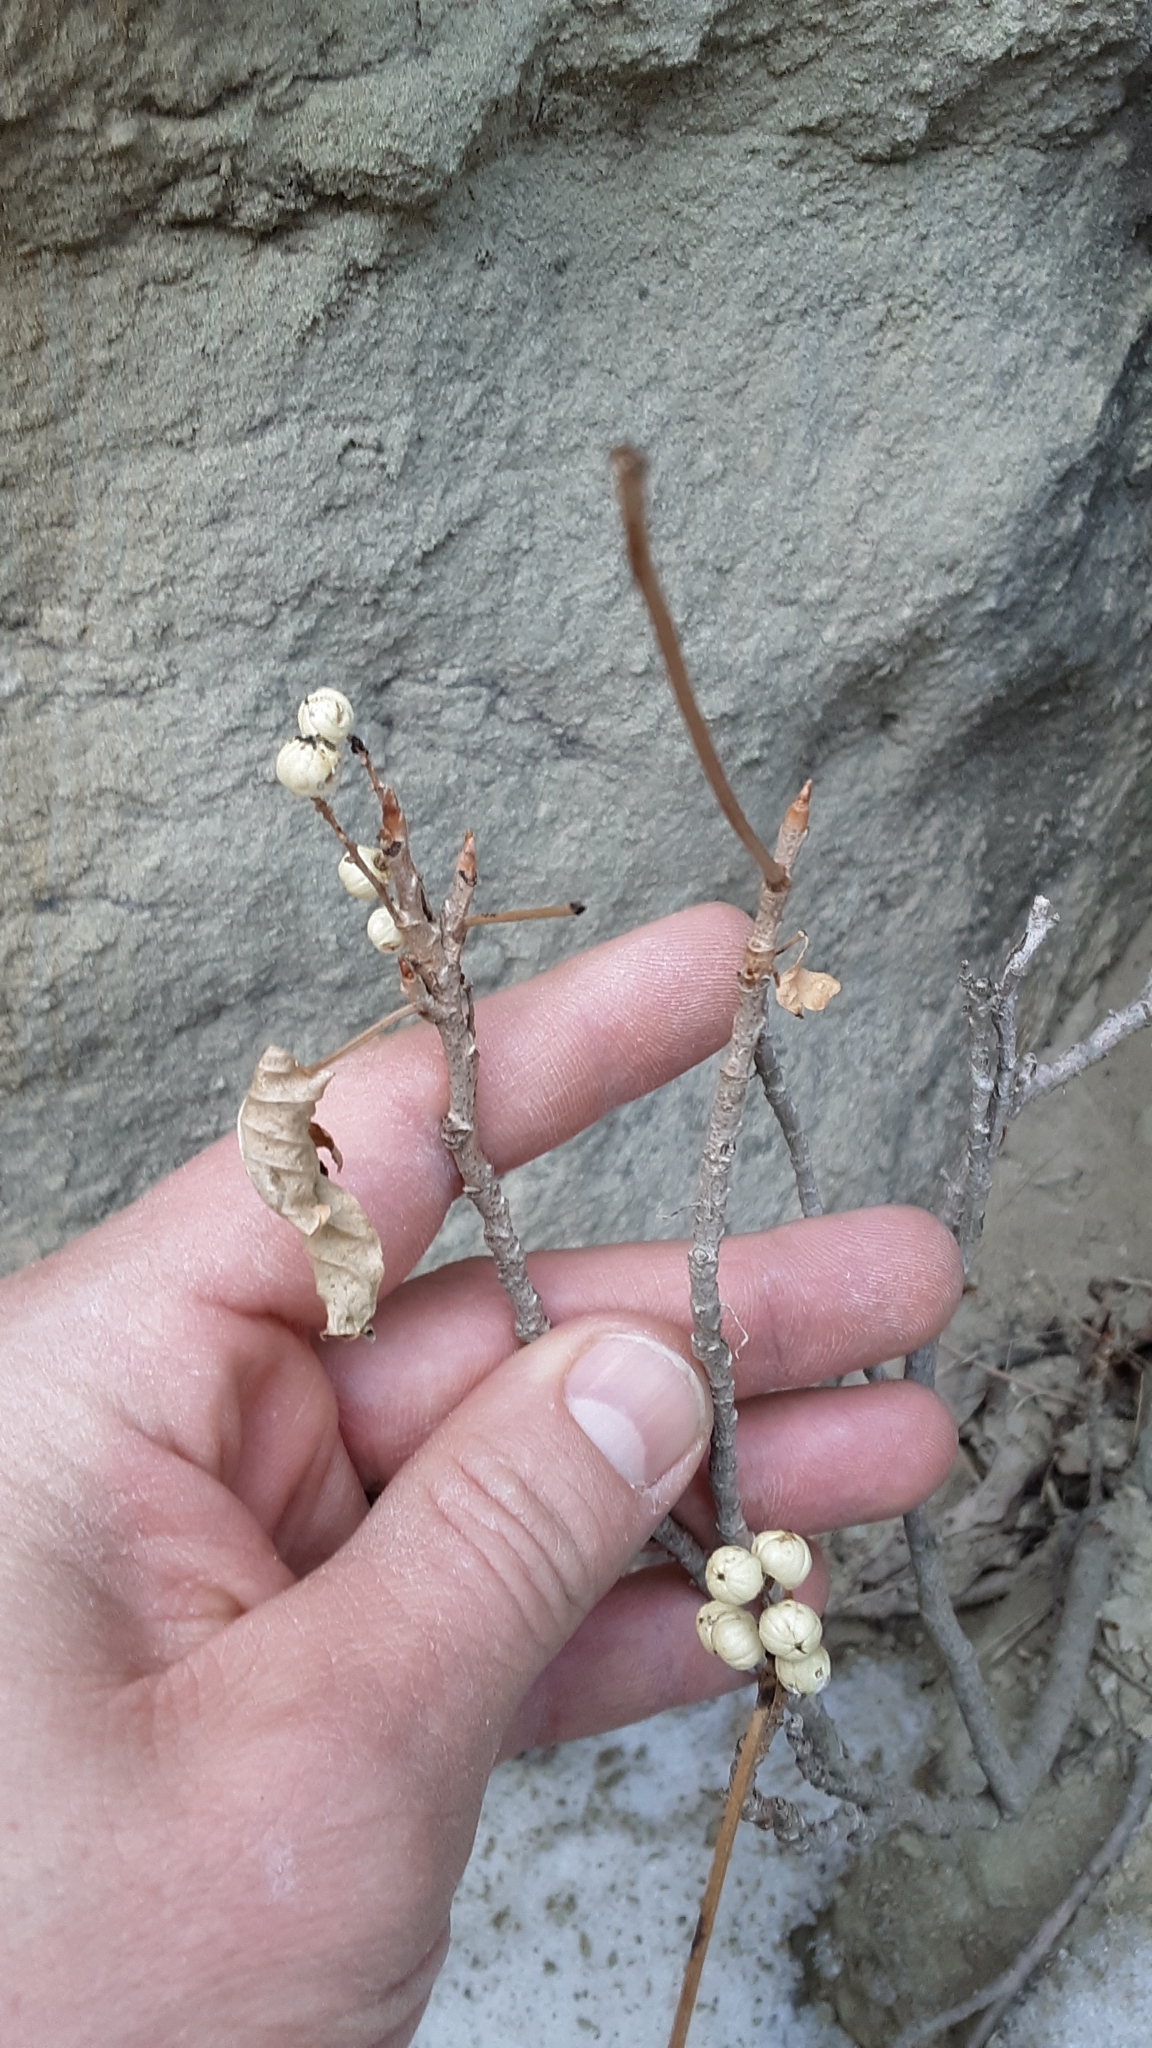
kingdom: Plantae
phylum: Tracheophyta
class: Magnoliopsida
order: Sapindales
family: Anacardiaceae
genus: Toxicodendron
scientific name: Toxicodendron rydbergii
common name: Rydberg's poison-ivy
